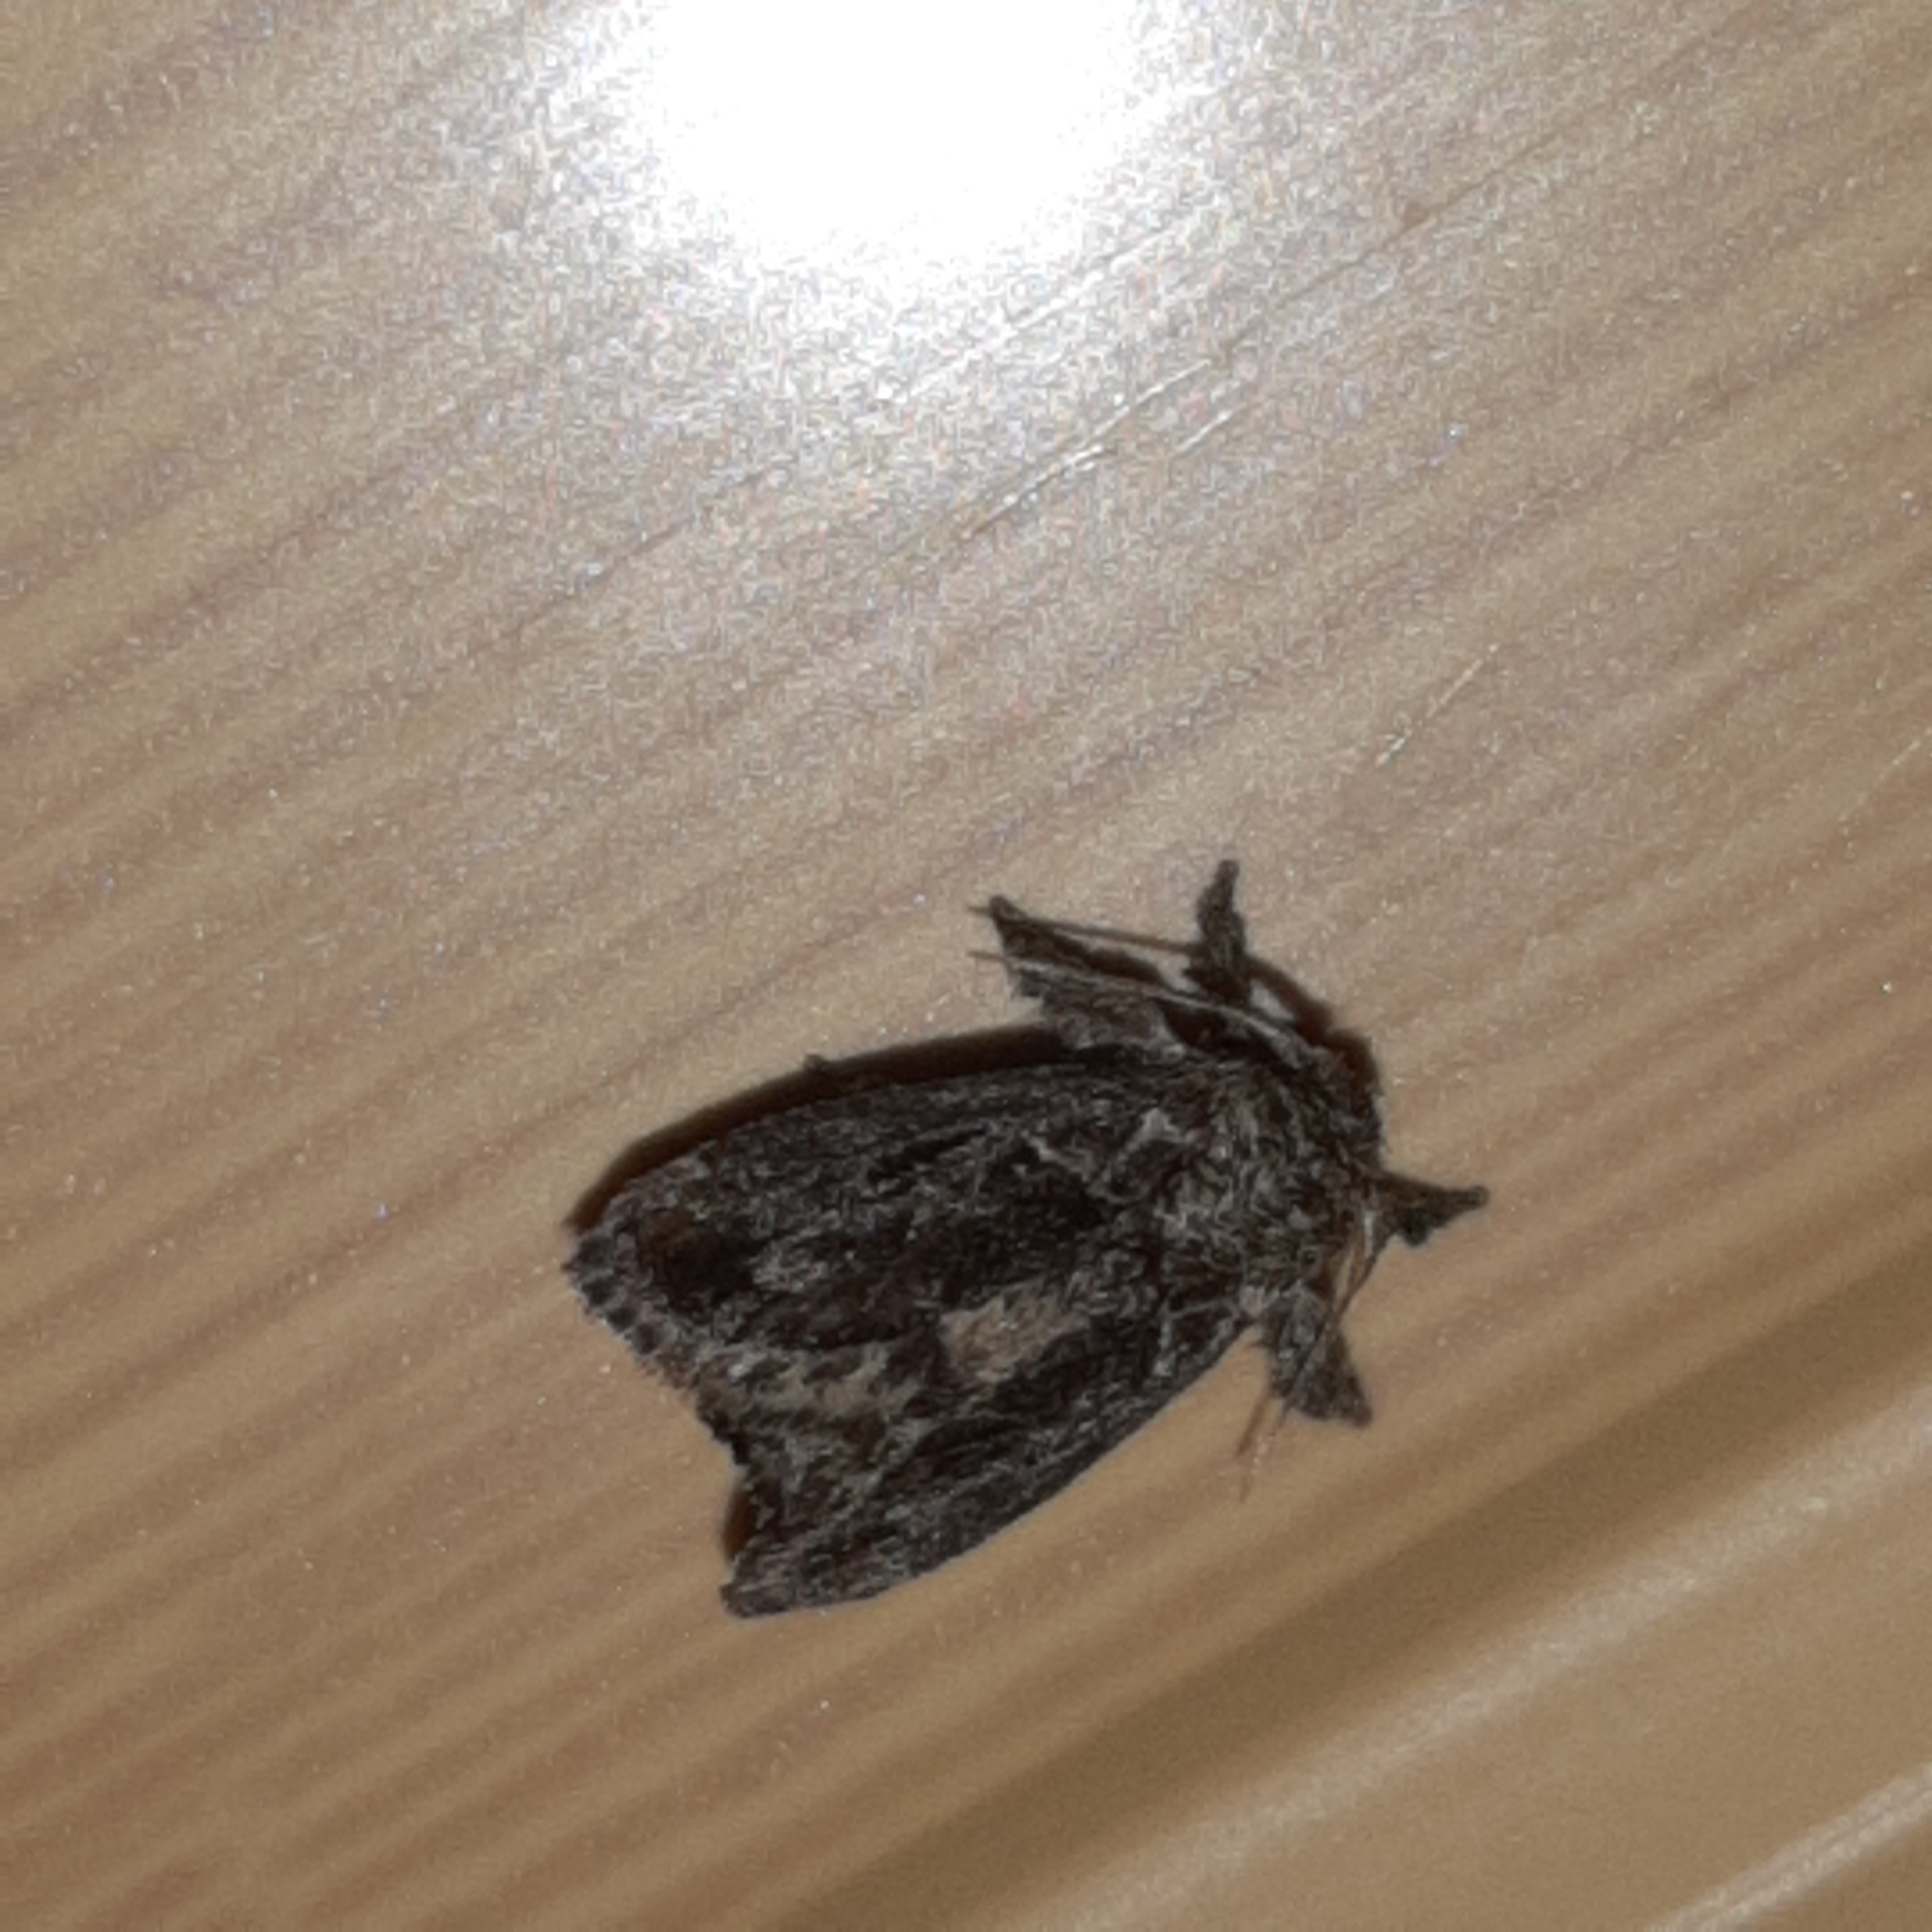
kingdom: Animalia
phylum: Arthropoda
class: Insecta
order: Lepidoptera
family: Limacodidae
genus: Euclea
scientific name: Euclea plugma
